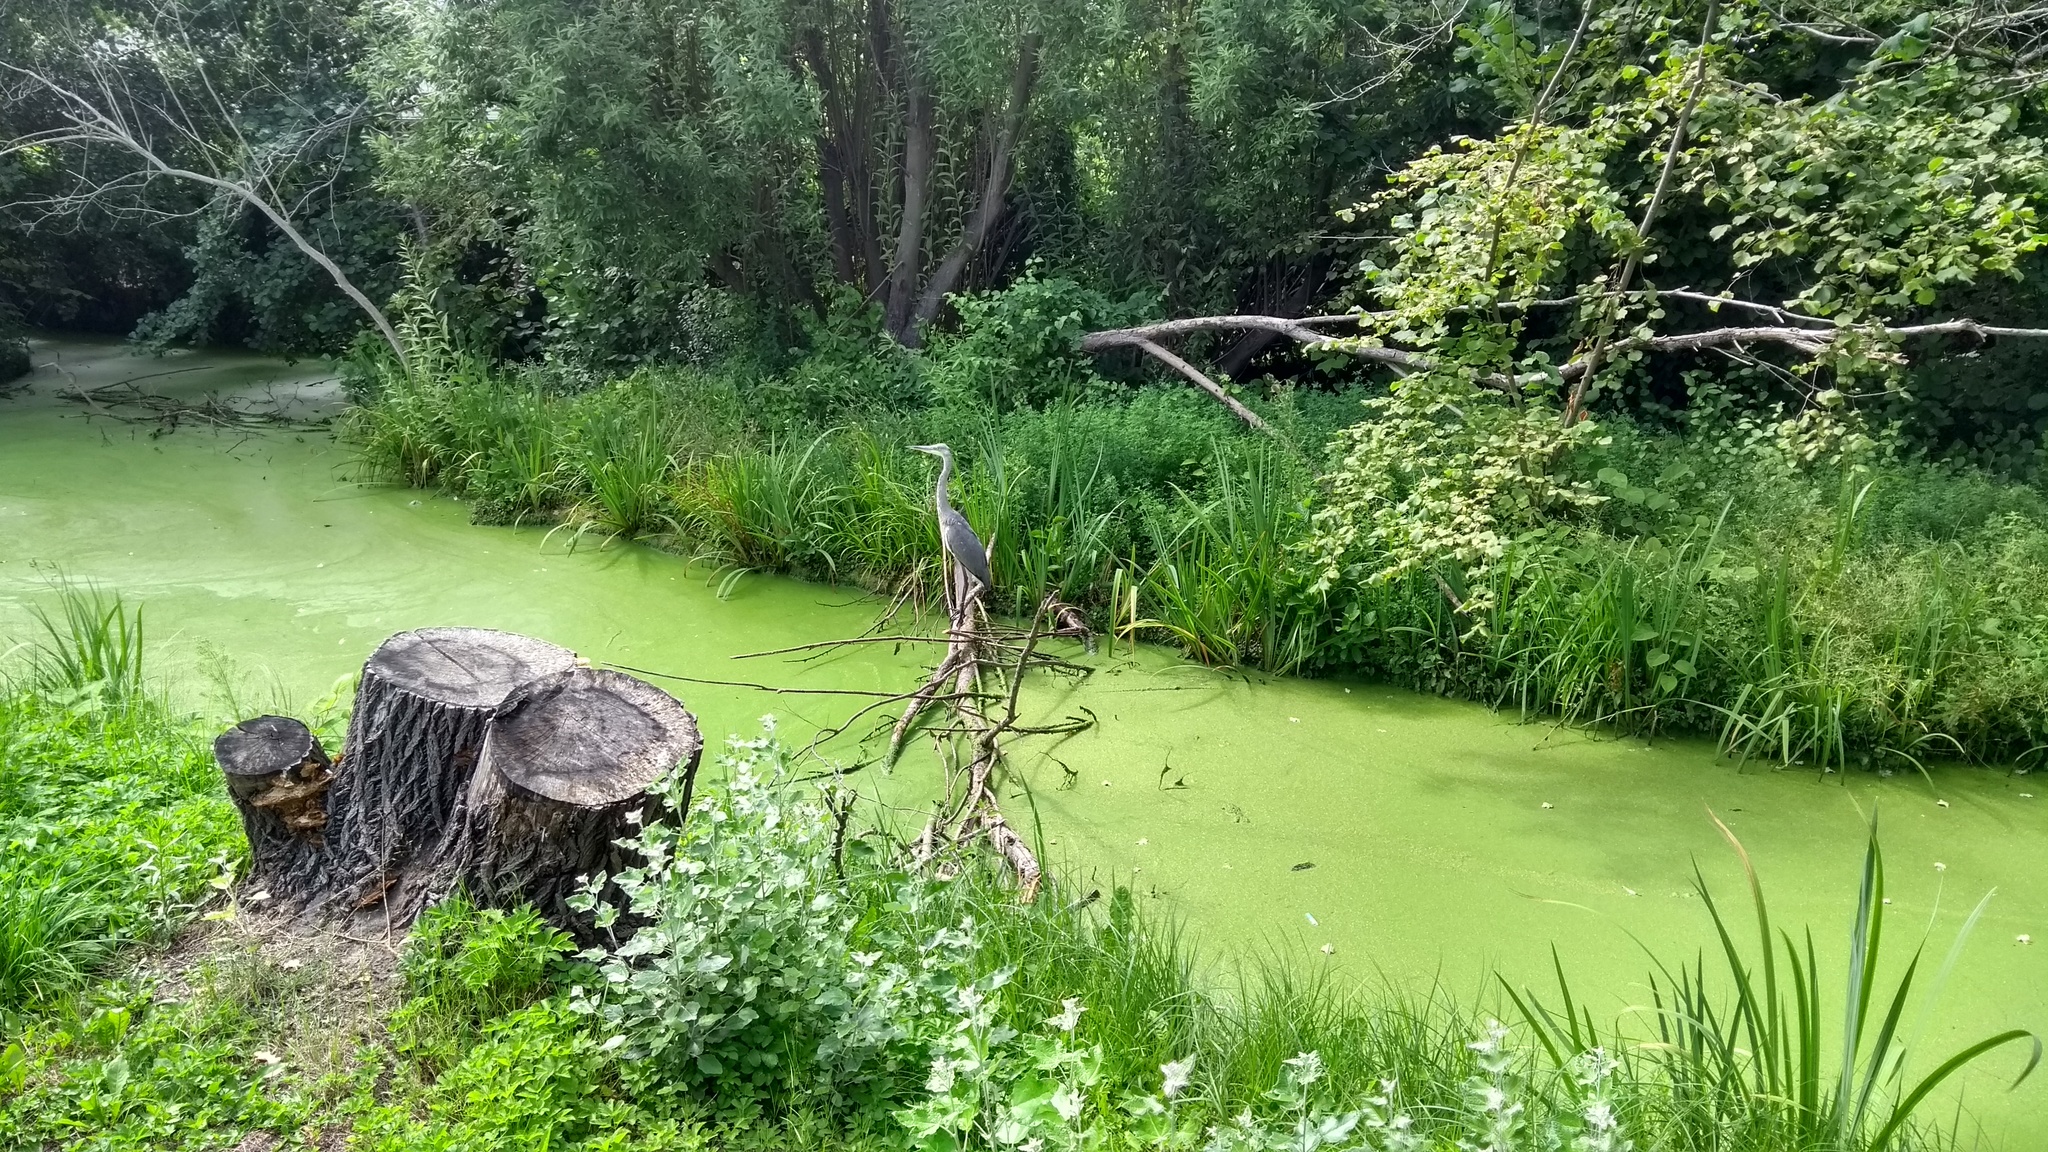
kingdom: Animalia
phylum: Chordata
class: Aves
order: Pelecaniformes
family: Ardeidae
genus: Ardea
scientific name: Ardea cinerea
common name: Grey heron
